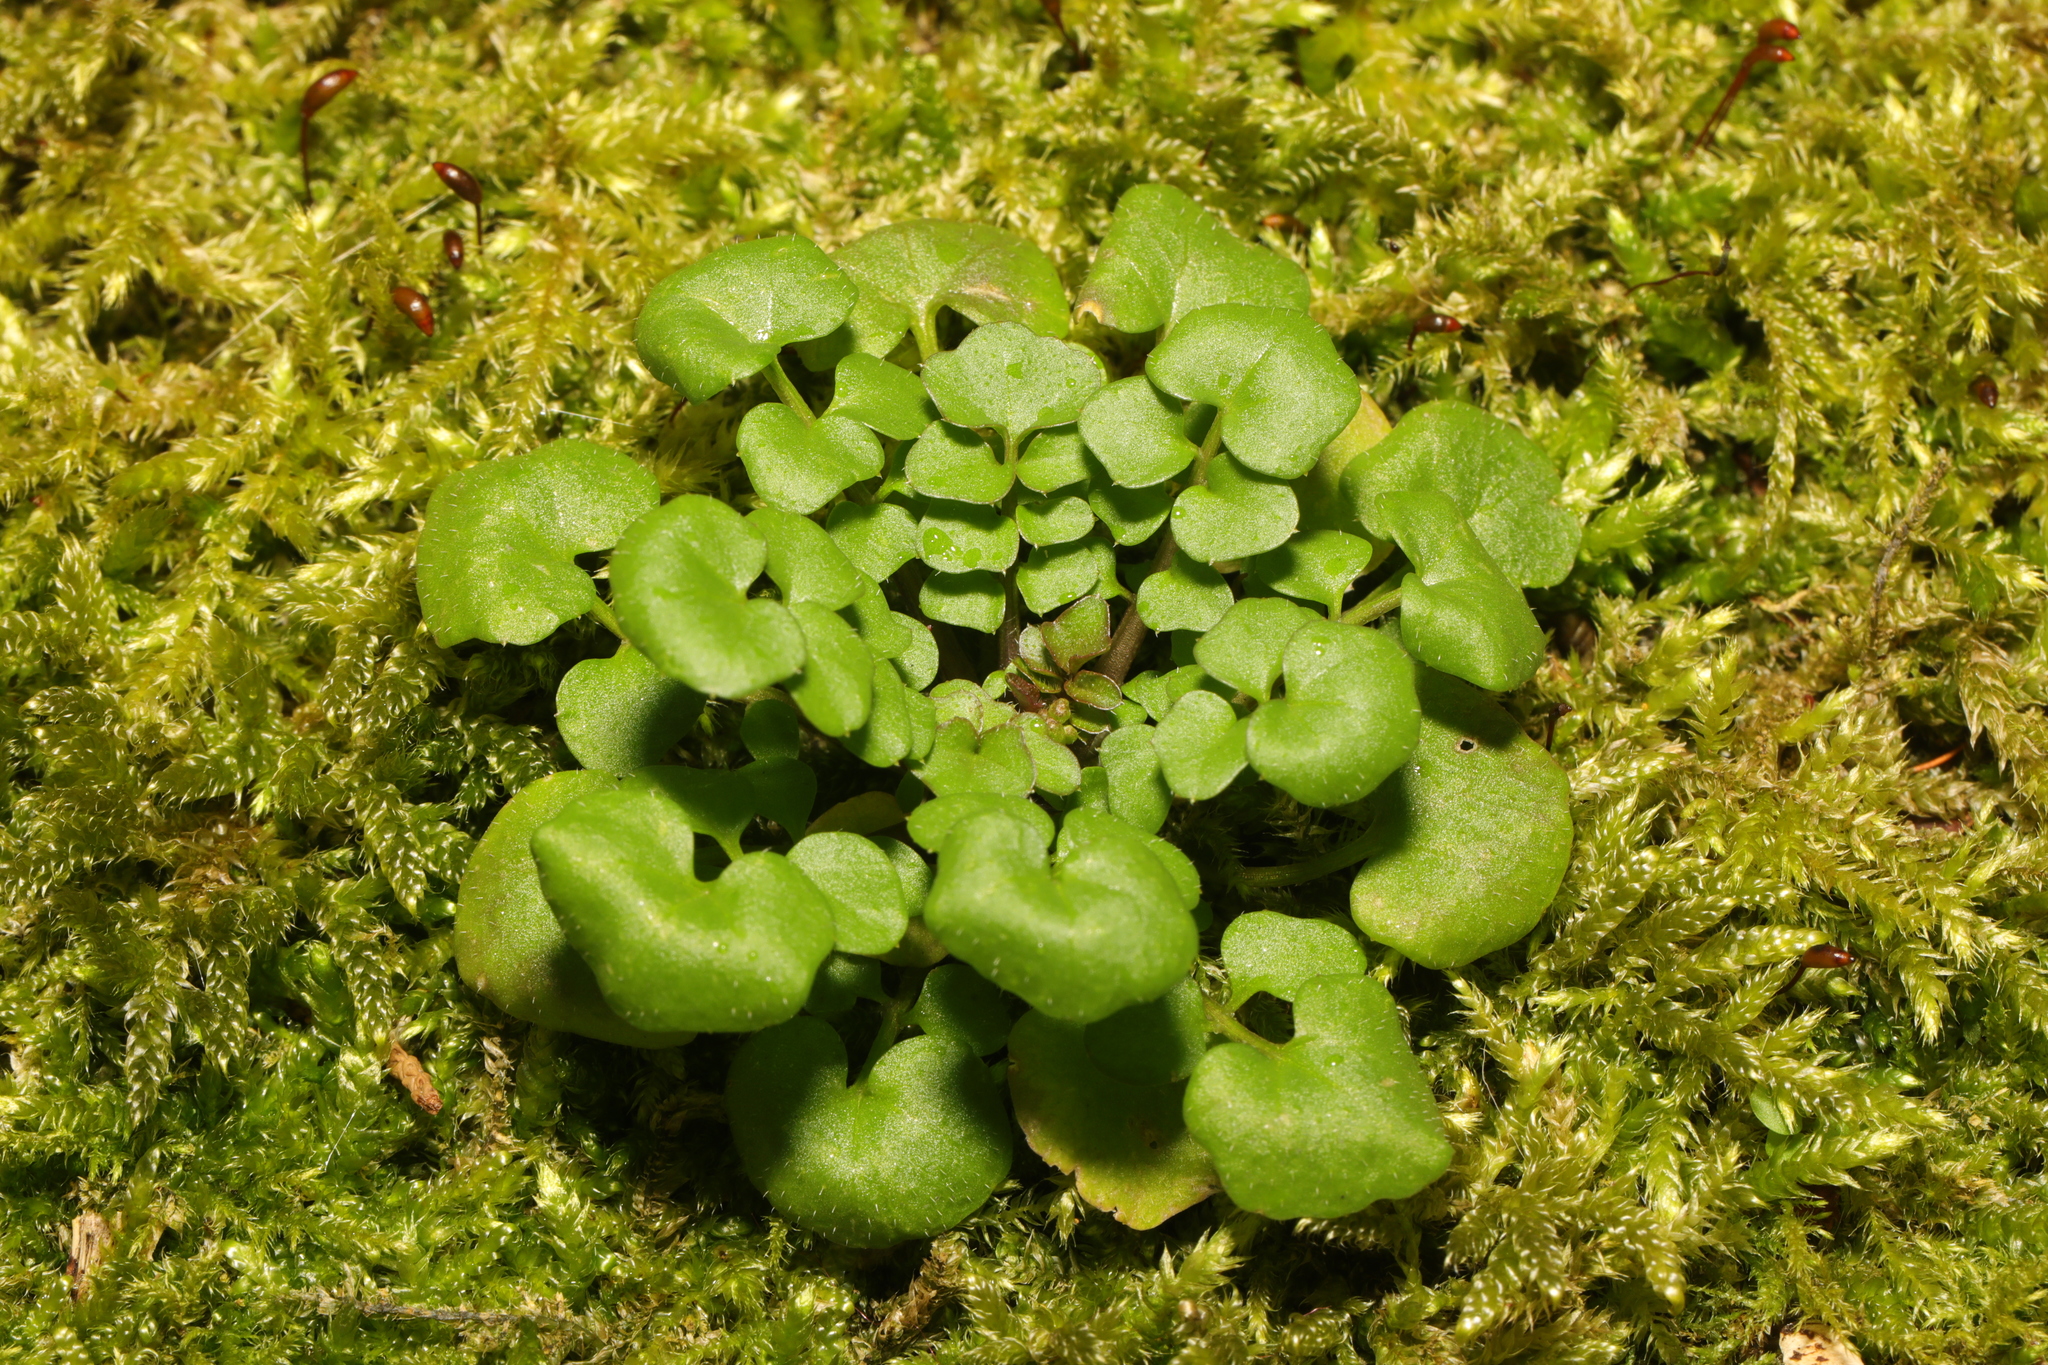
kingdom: Plantae
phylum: Tracheophyta
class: Magnoliopsida
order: Brassicales
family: Brassicaceae
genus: Cardamine
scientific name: Cardamine hirsuta
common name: Hairy bittercress
